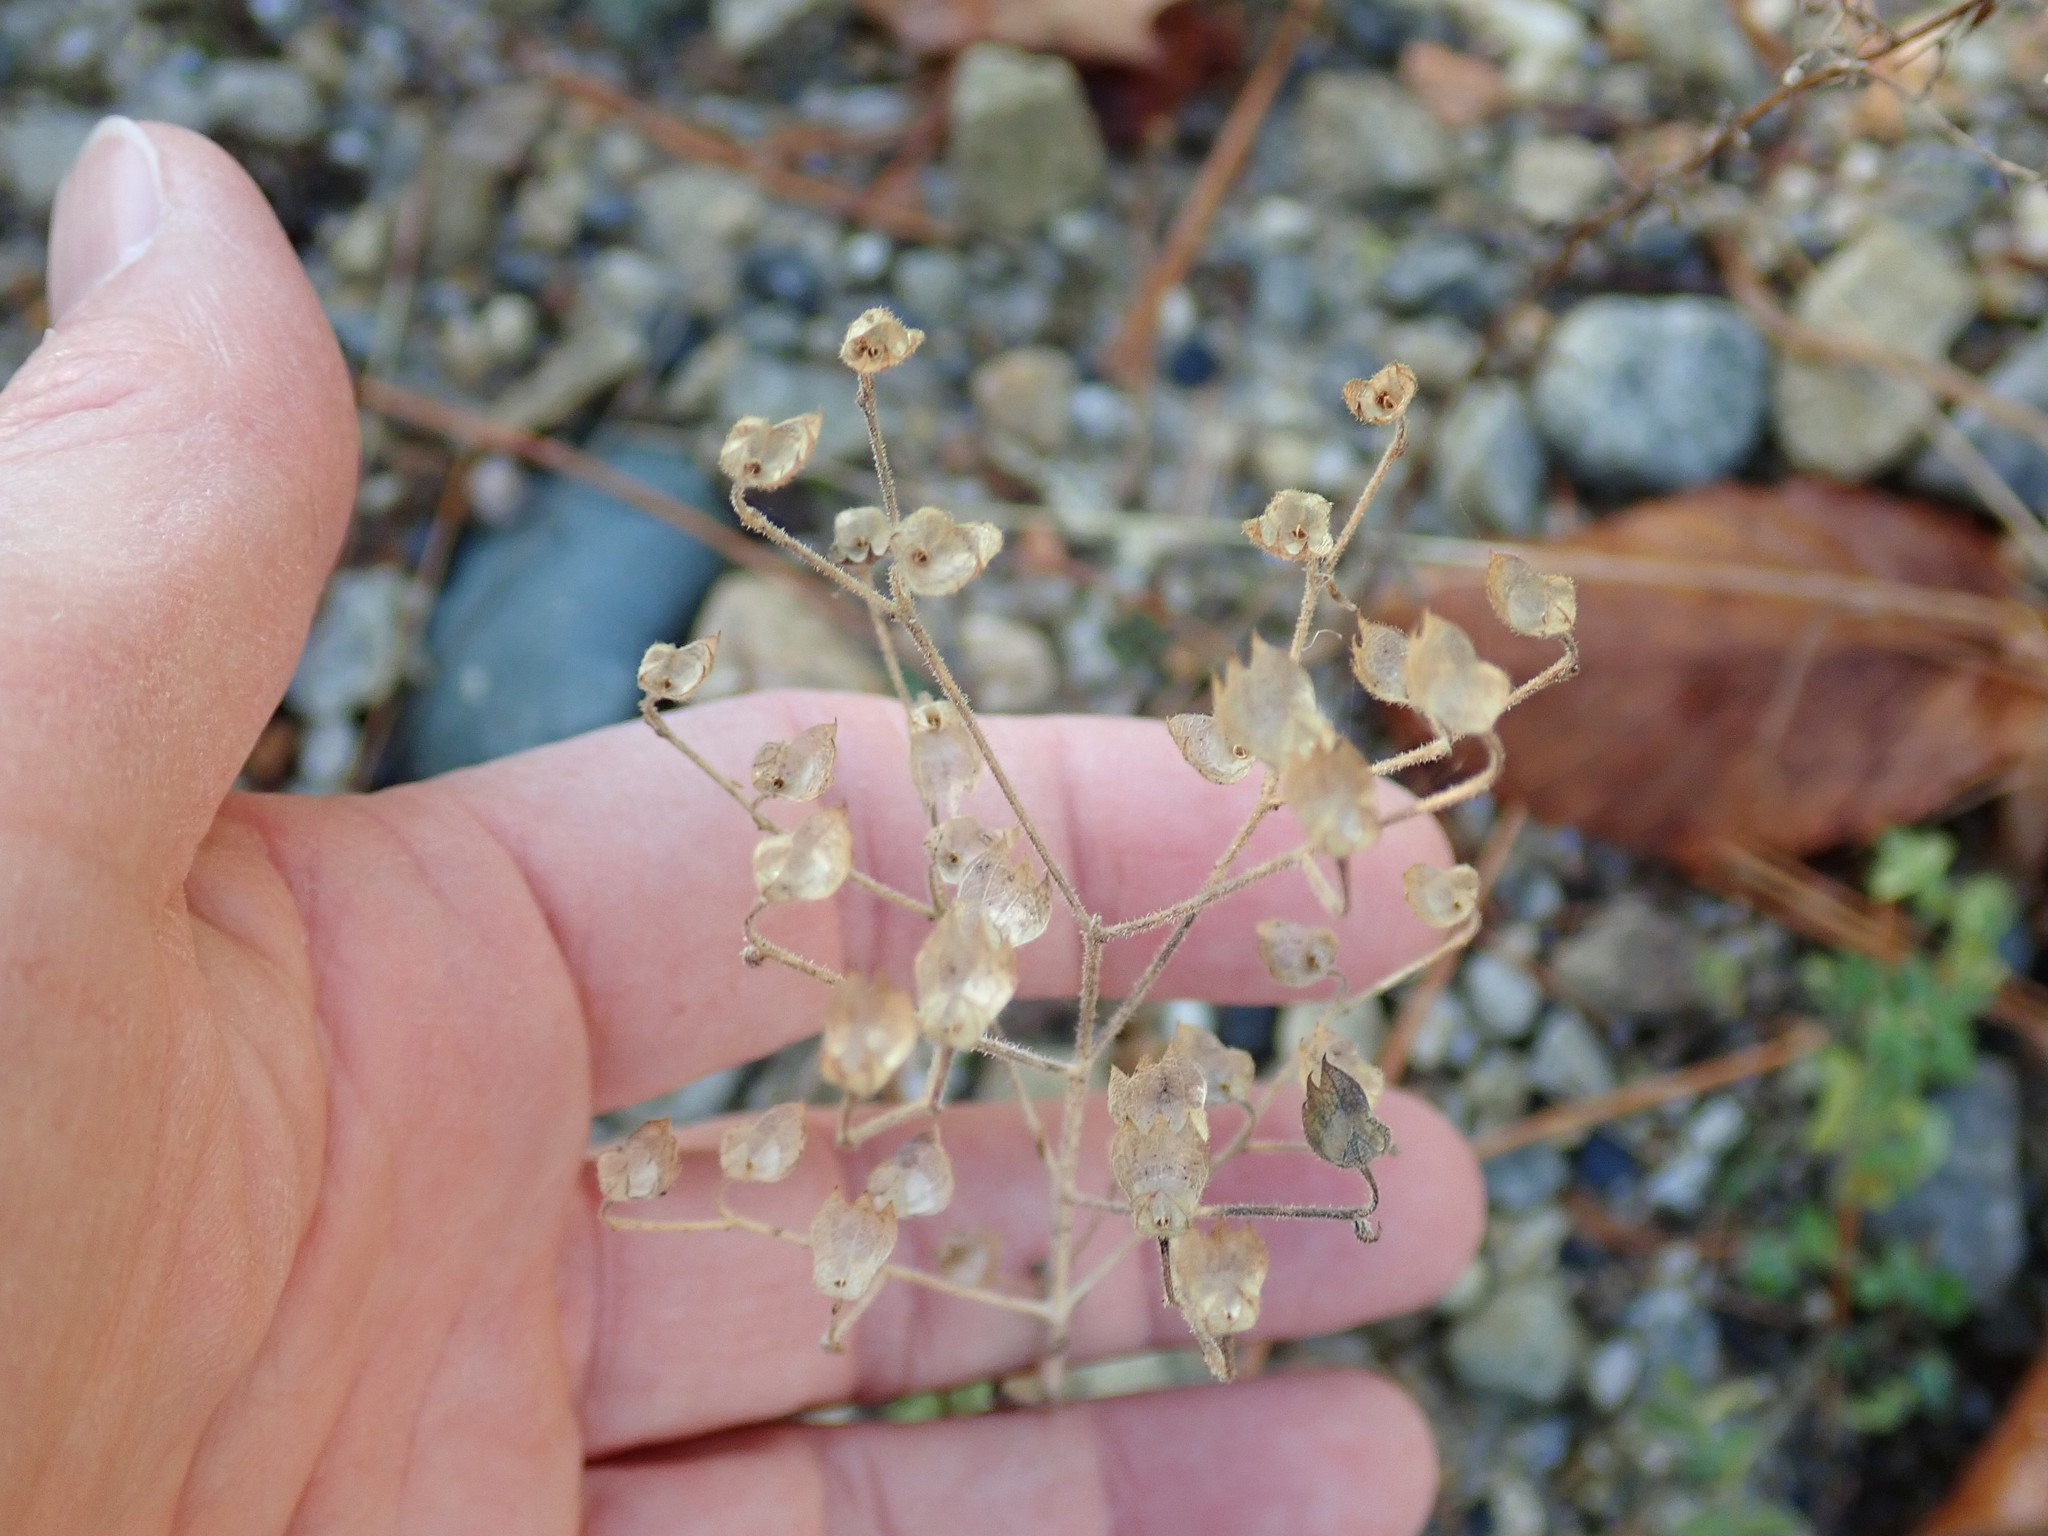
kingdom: Plantae
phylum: Tracheophyta
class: Magnoliopsida
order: Lamiales
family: Lamiaceae
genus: Trichostema
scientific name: Trichostema dichotomum
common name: Bastard pennyroyal
